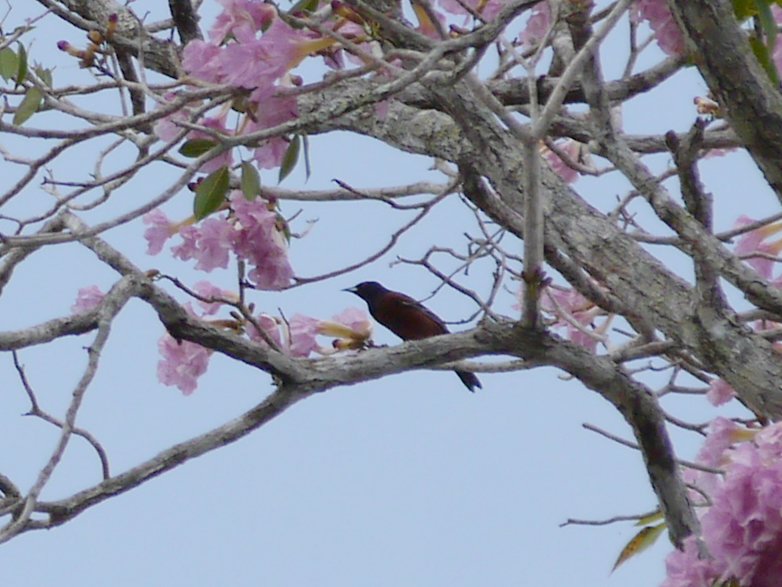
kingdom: Animalia
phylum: Chordata
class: Aves
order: Passeriformes
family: Icteridae
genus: Icterus
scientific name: Icterus spurius
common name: Orchard oriole
